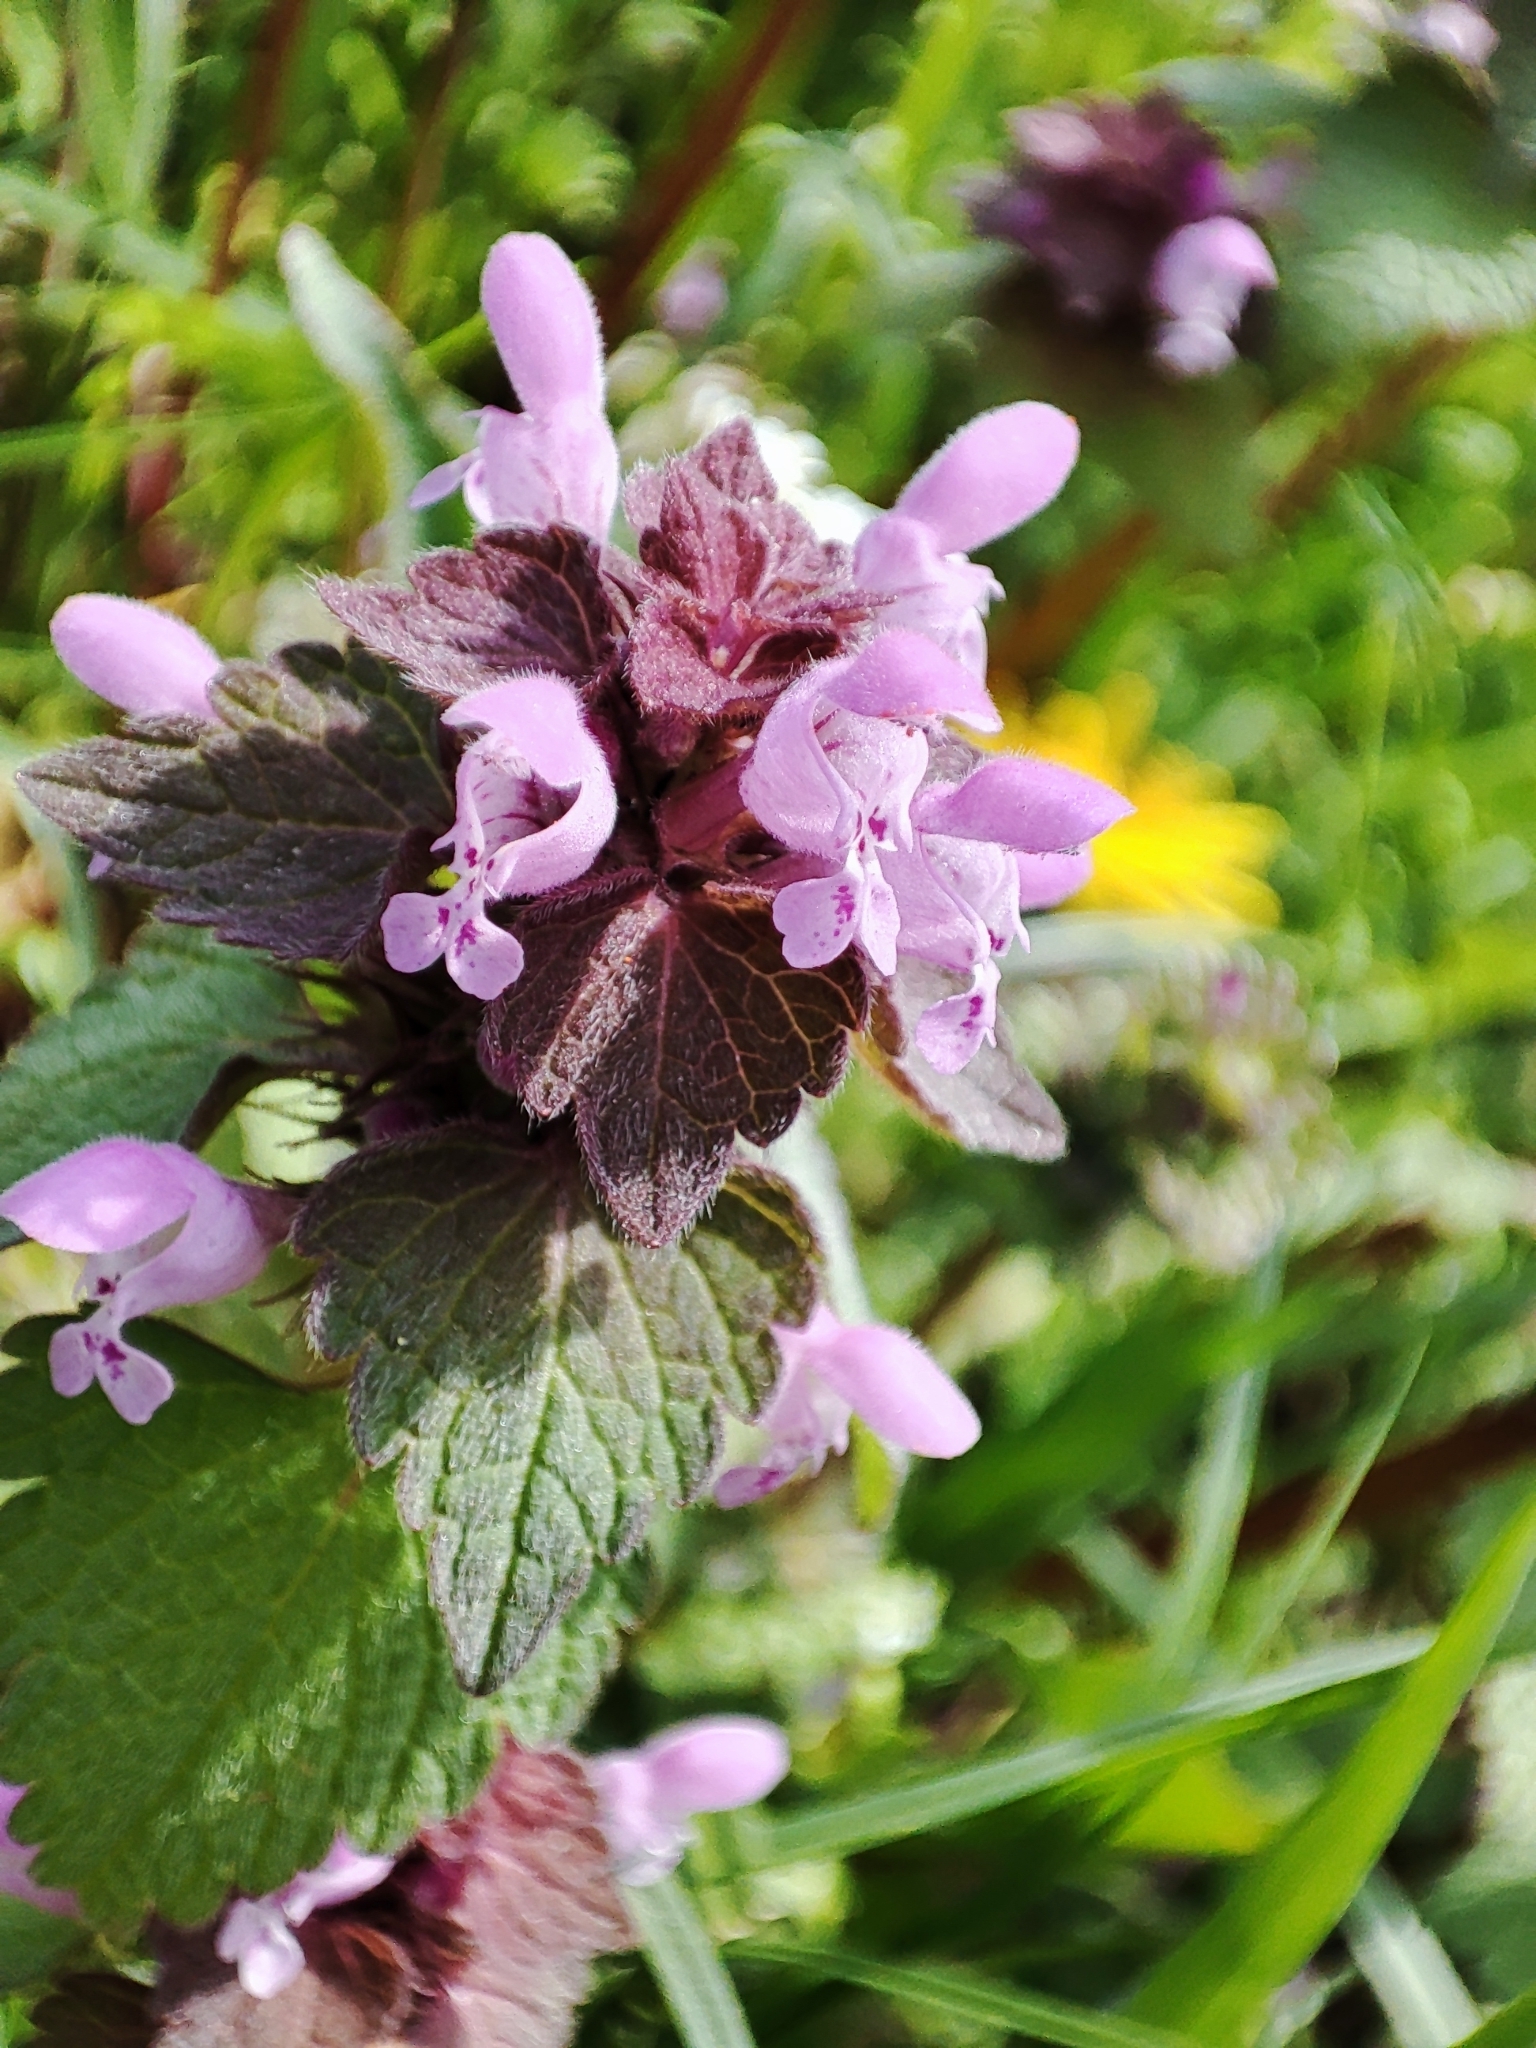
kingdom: Plantae
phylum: Tracheophyta
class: Magnoliopsida
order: Lamiales
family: Lamiaceae
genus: Lamium
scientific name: Lamium purpureum
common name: Red dead-nettle
